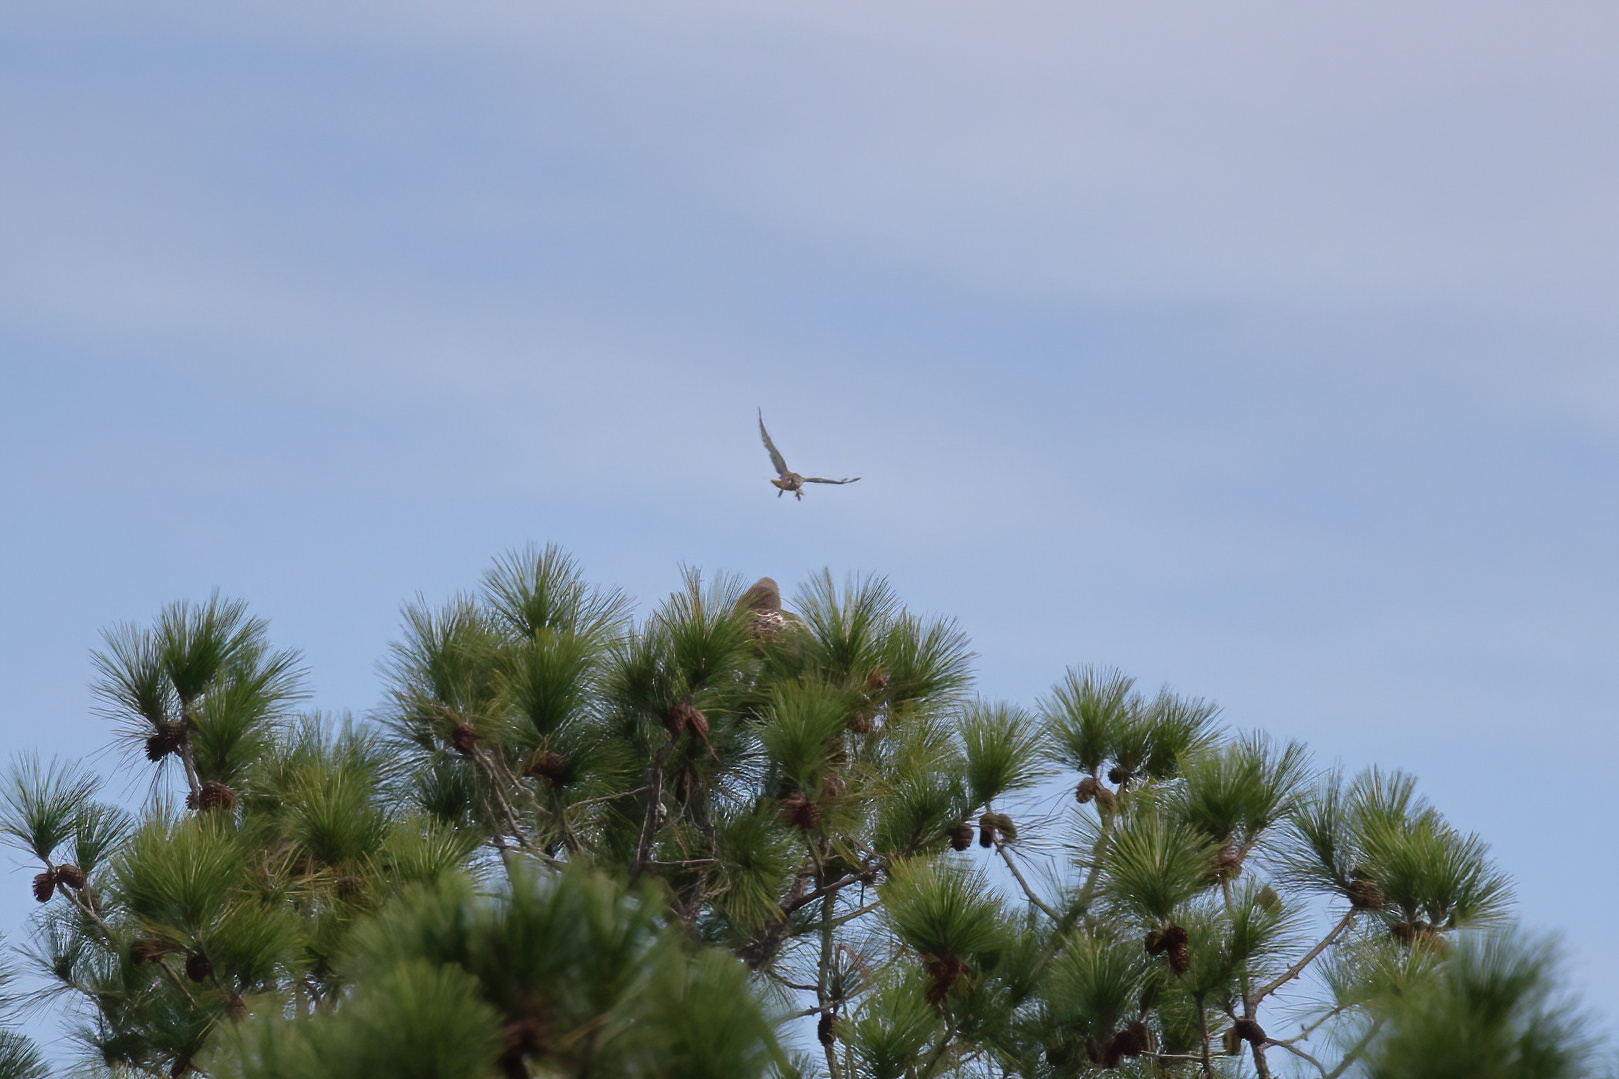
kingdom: Animalia
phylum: Chordata
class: Aves
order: Accipitriformes
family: Accipitridae
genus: Buteo
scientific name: Buteo jamaicensis
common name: Red-tailed hawk
